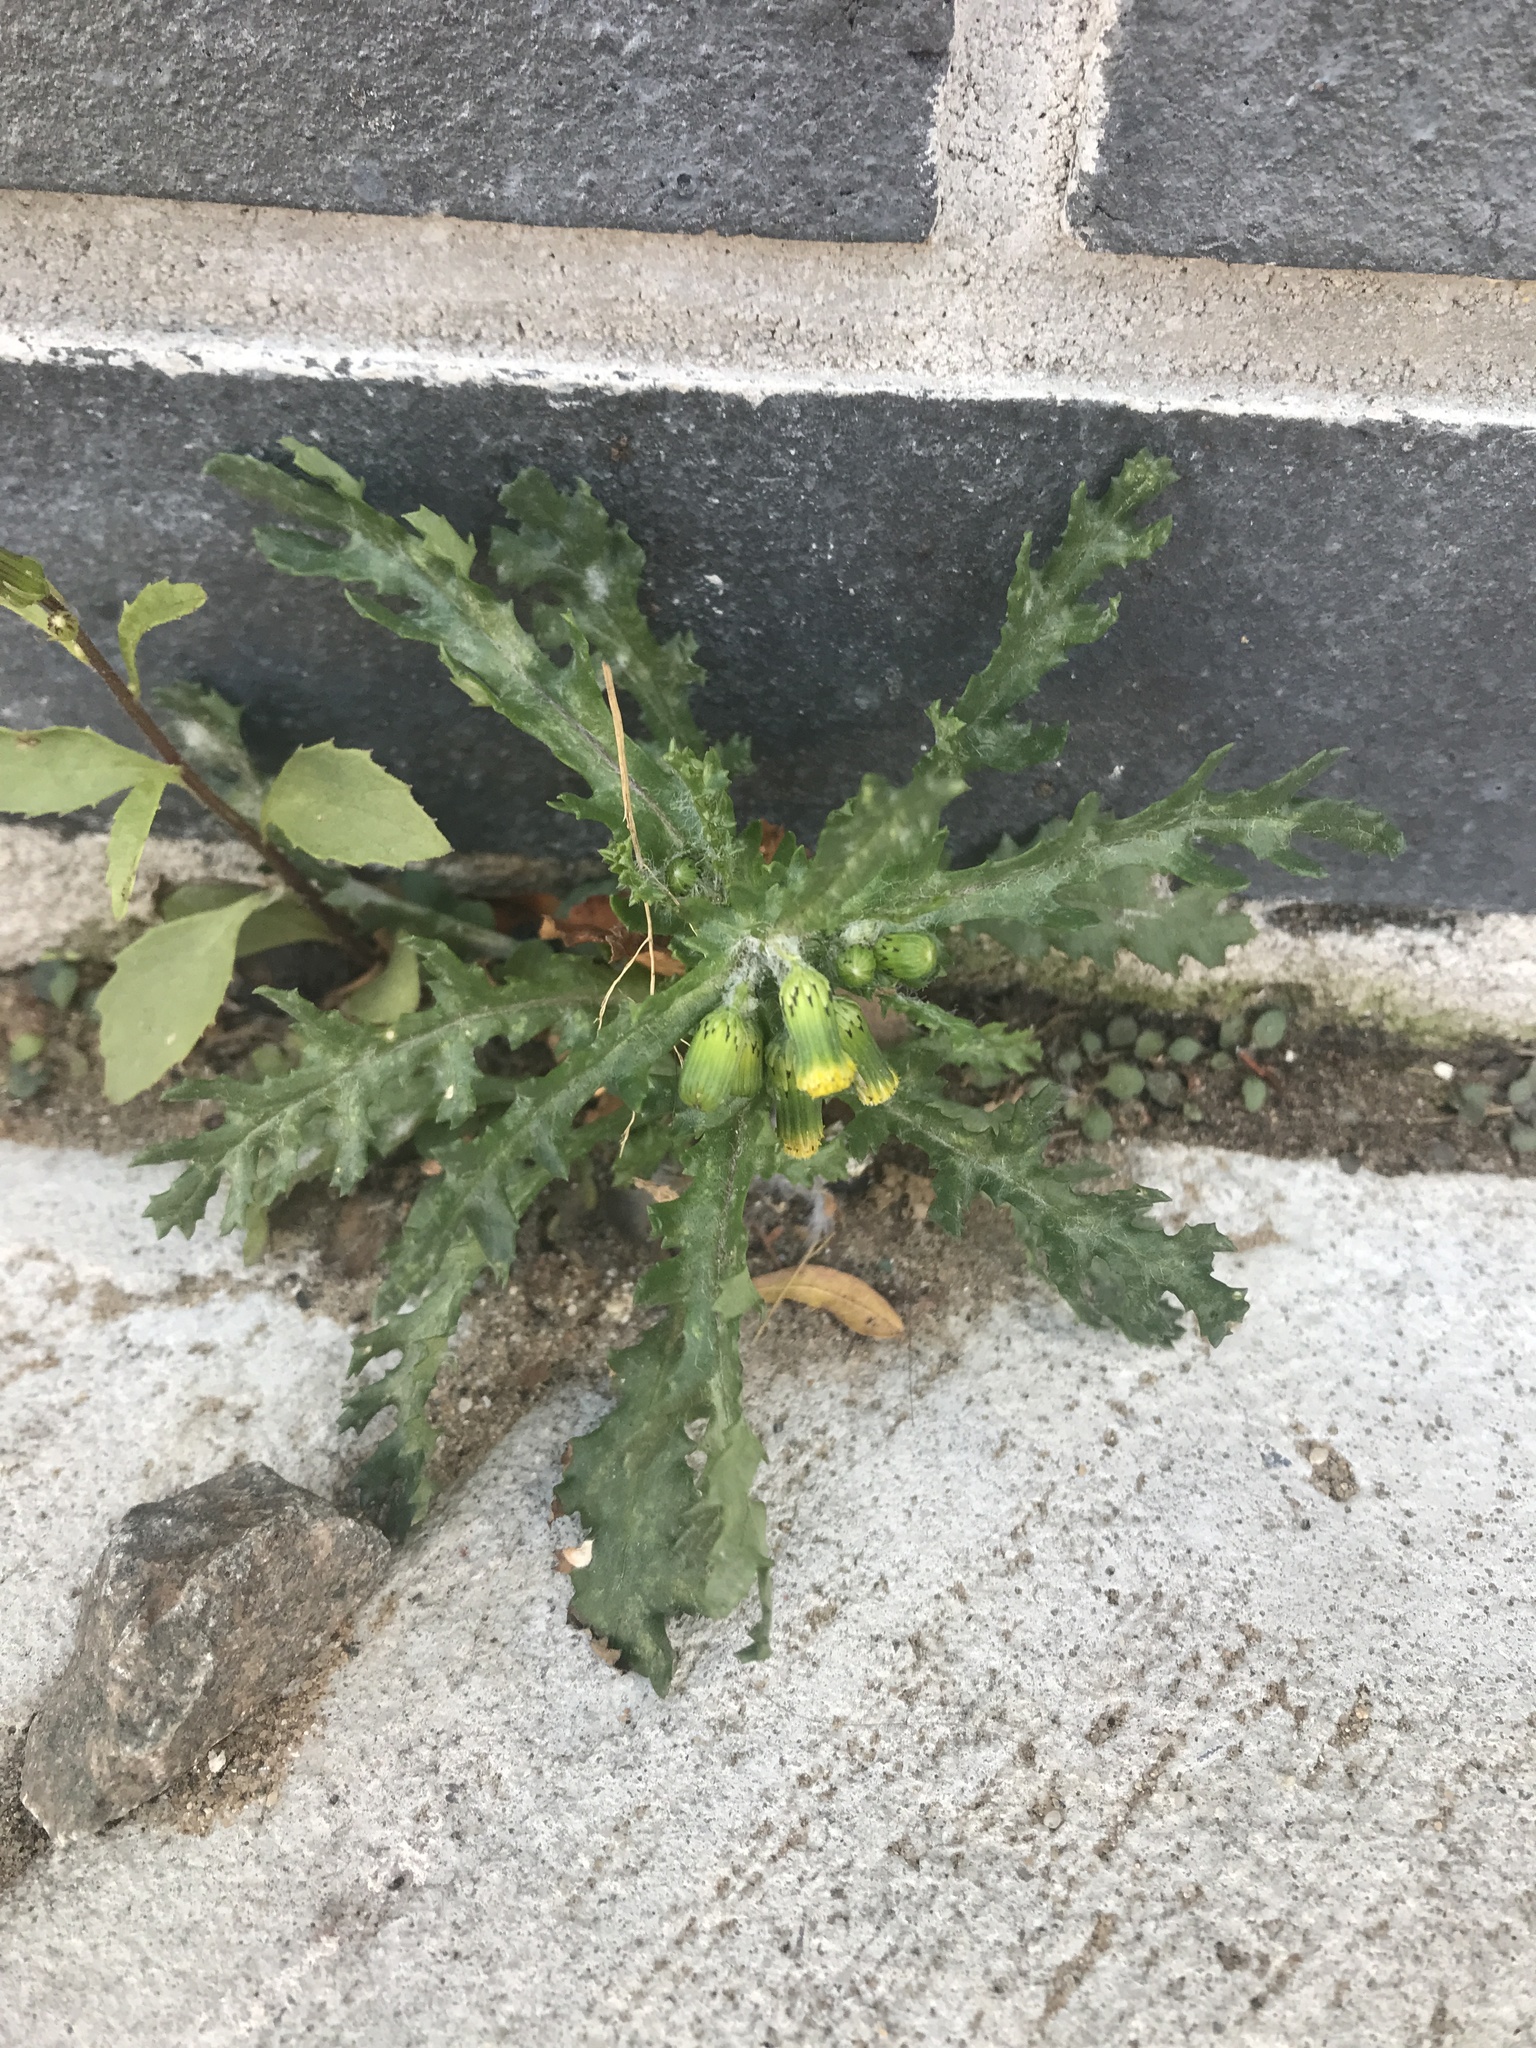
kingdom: Plantae
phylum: Tracheophyta
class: Magnoliopsida
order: Asterales
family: Asteraceae
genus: Senecio
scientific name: Senecio vulgaris
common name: Old-man-in-the-spring
